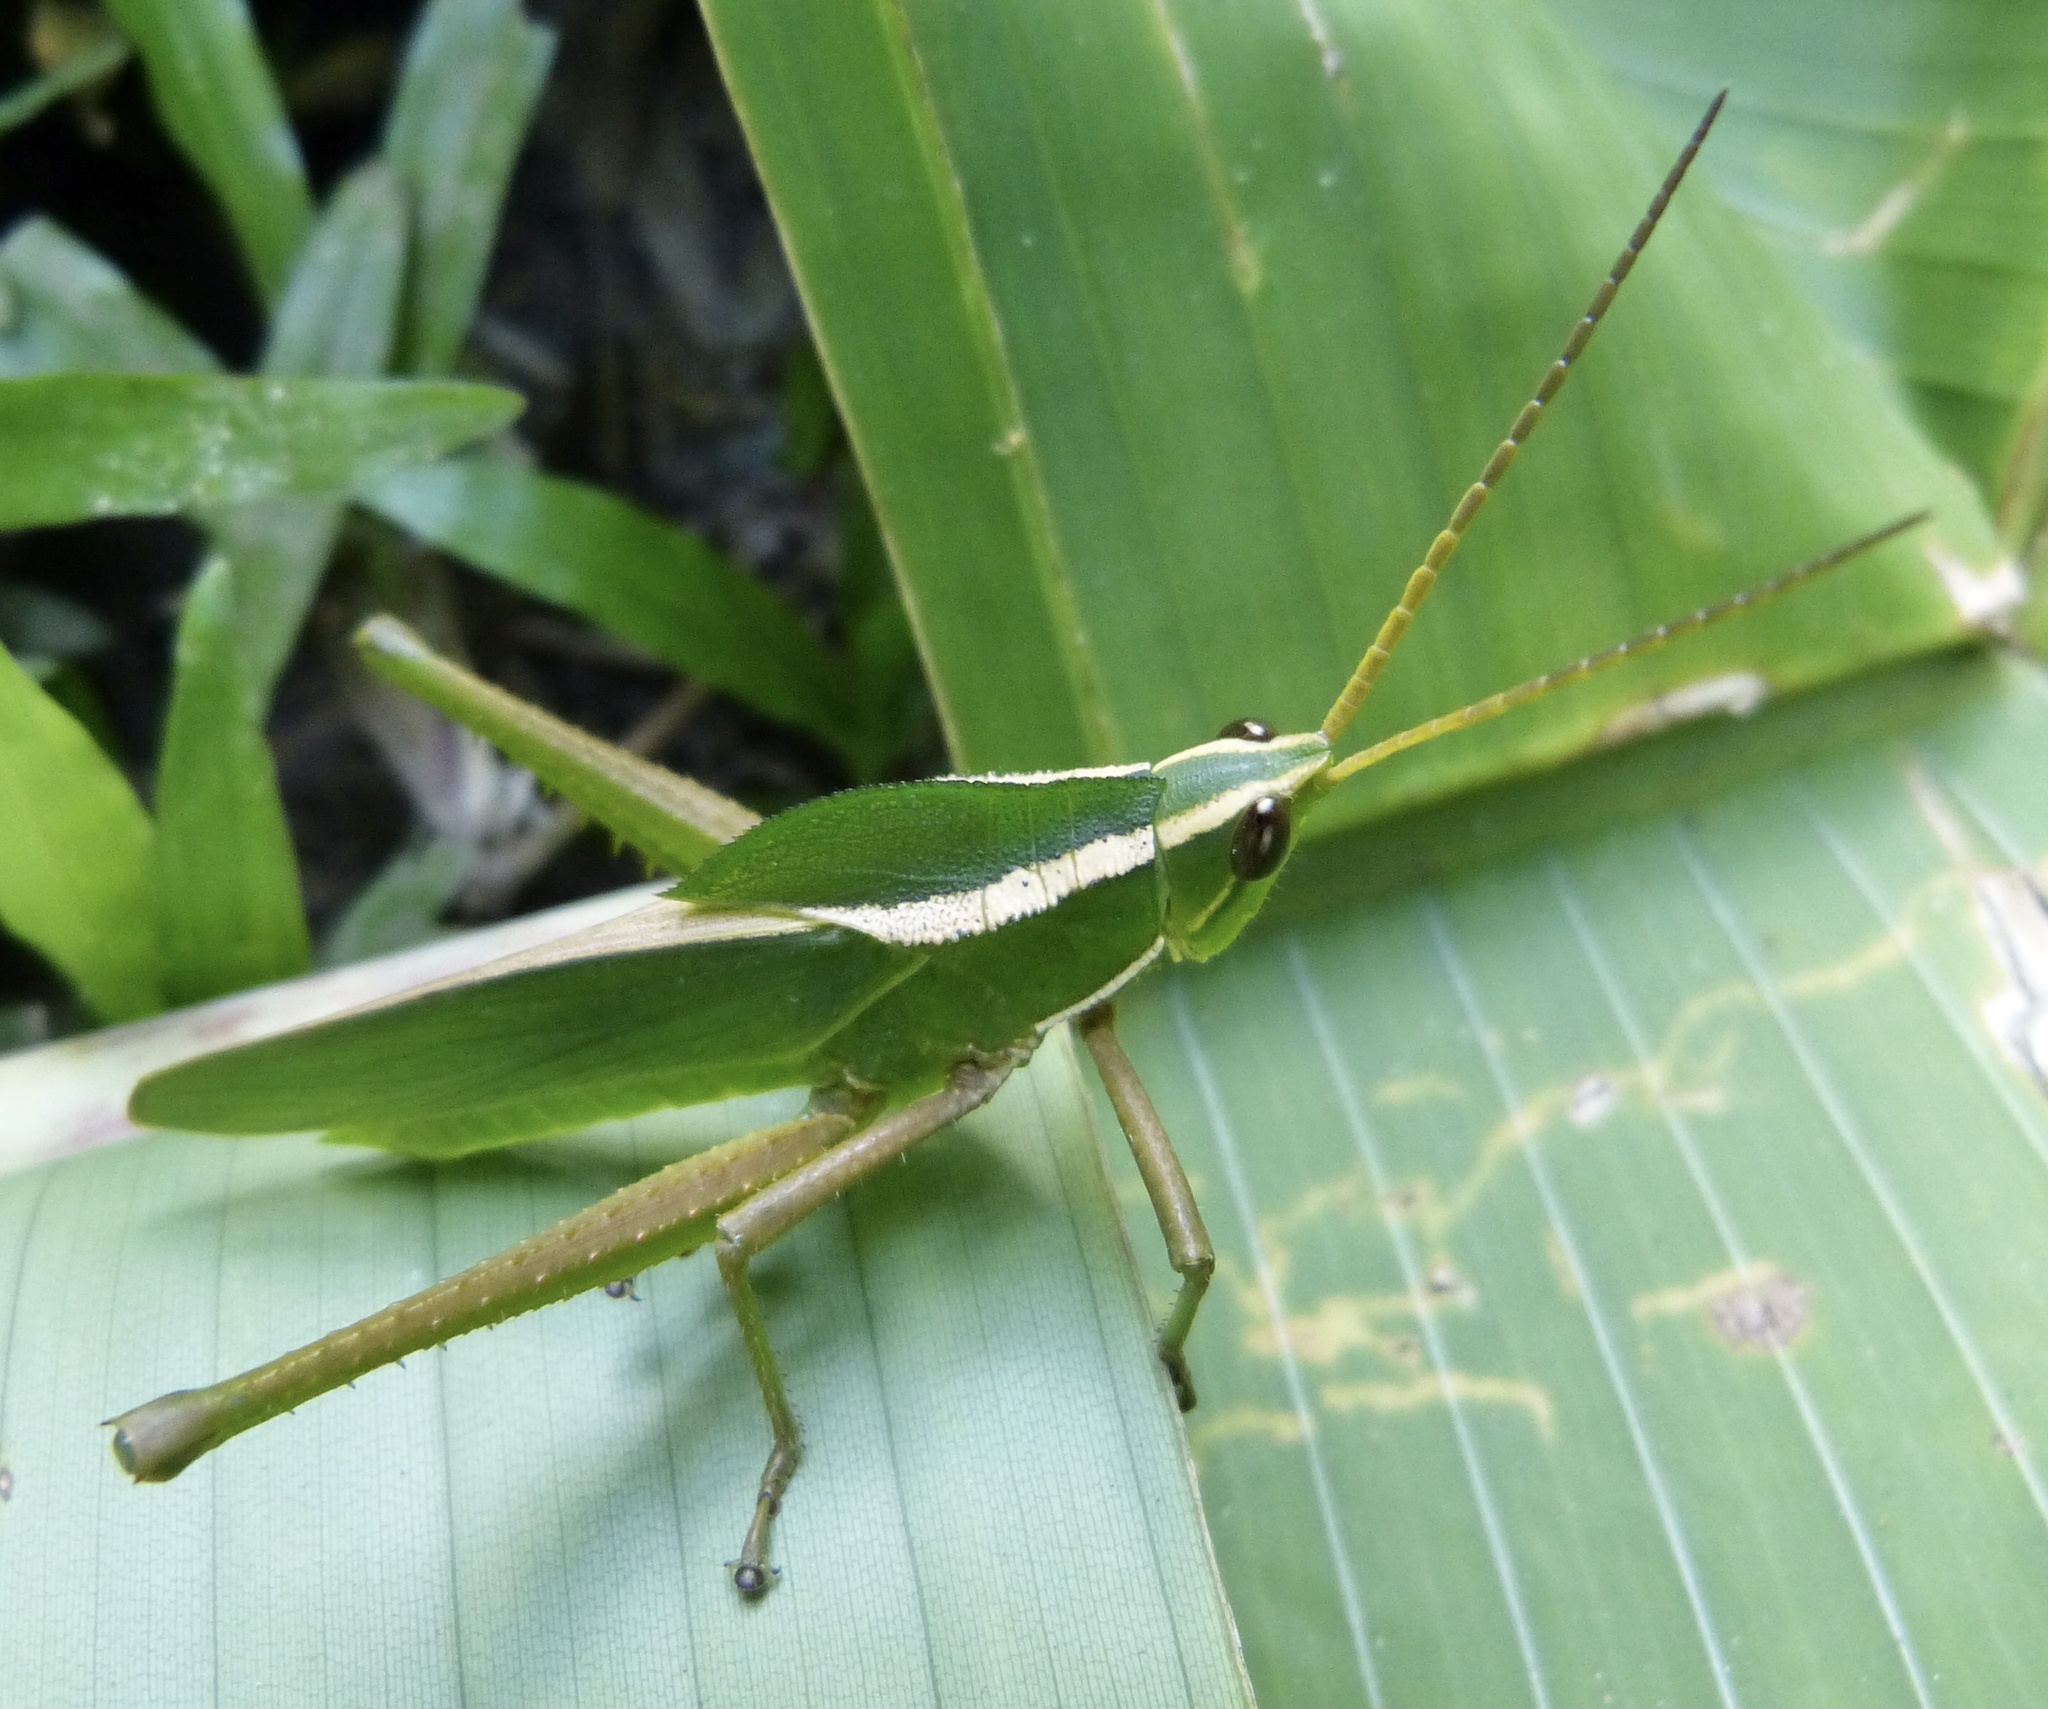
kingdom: Animalia
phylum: Arthropoda
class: Insecta
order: Orthoptera
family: Romaleidae
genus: Prionolopha
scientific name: Prionolopha serrata
